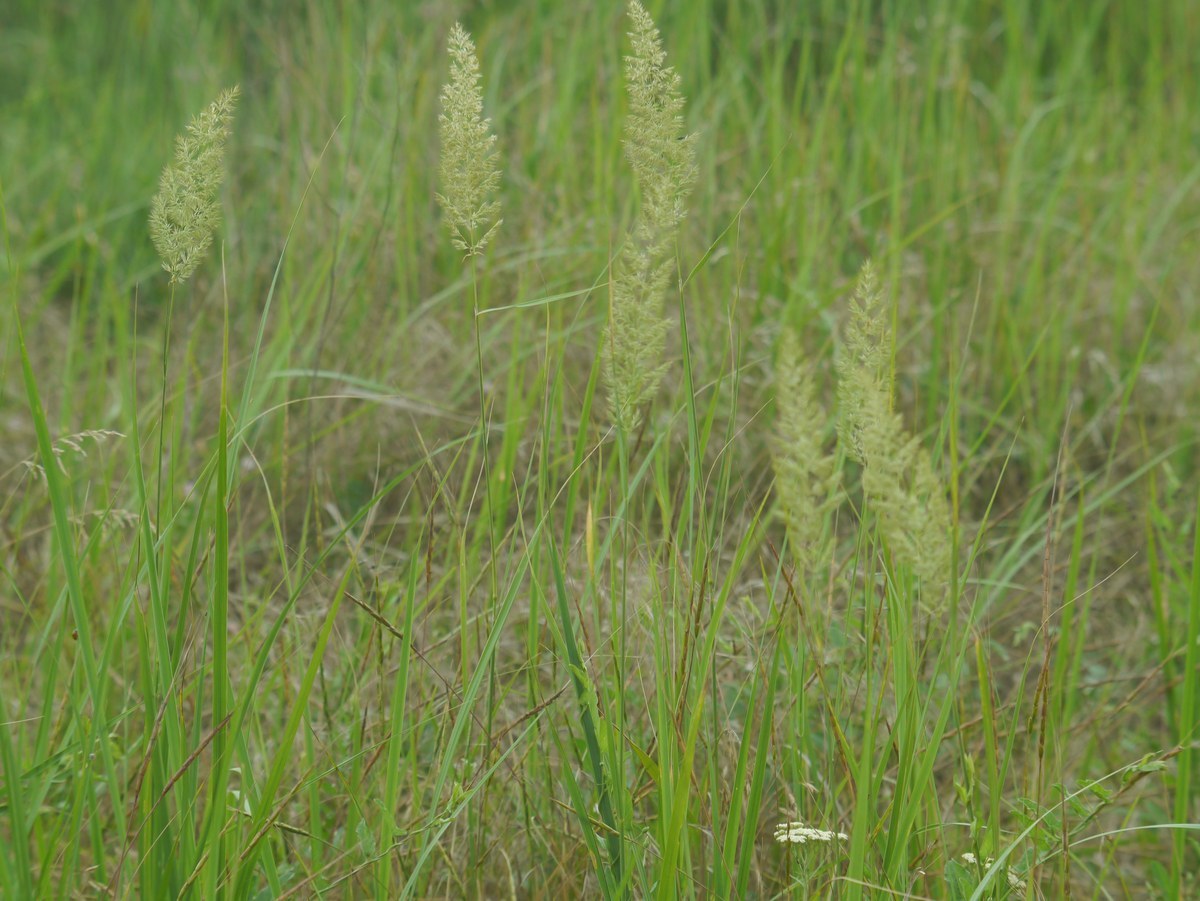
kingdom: Plantae
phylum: Tracheophyta
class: Liliopsida
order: Poales
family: Poaceae
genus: Calamagrostis
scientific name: Calamagrostis epigejos
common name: Wood small-reed
